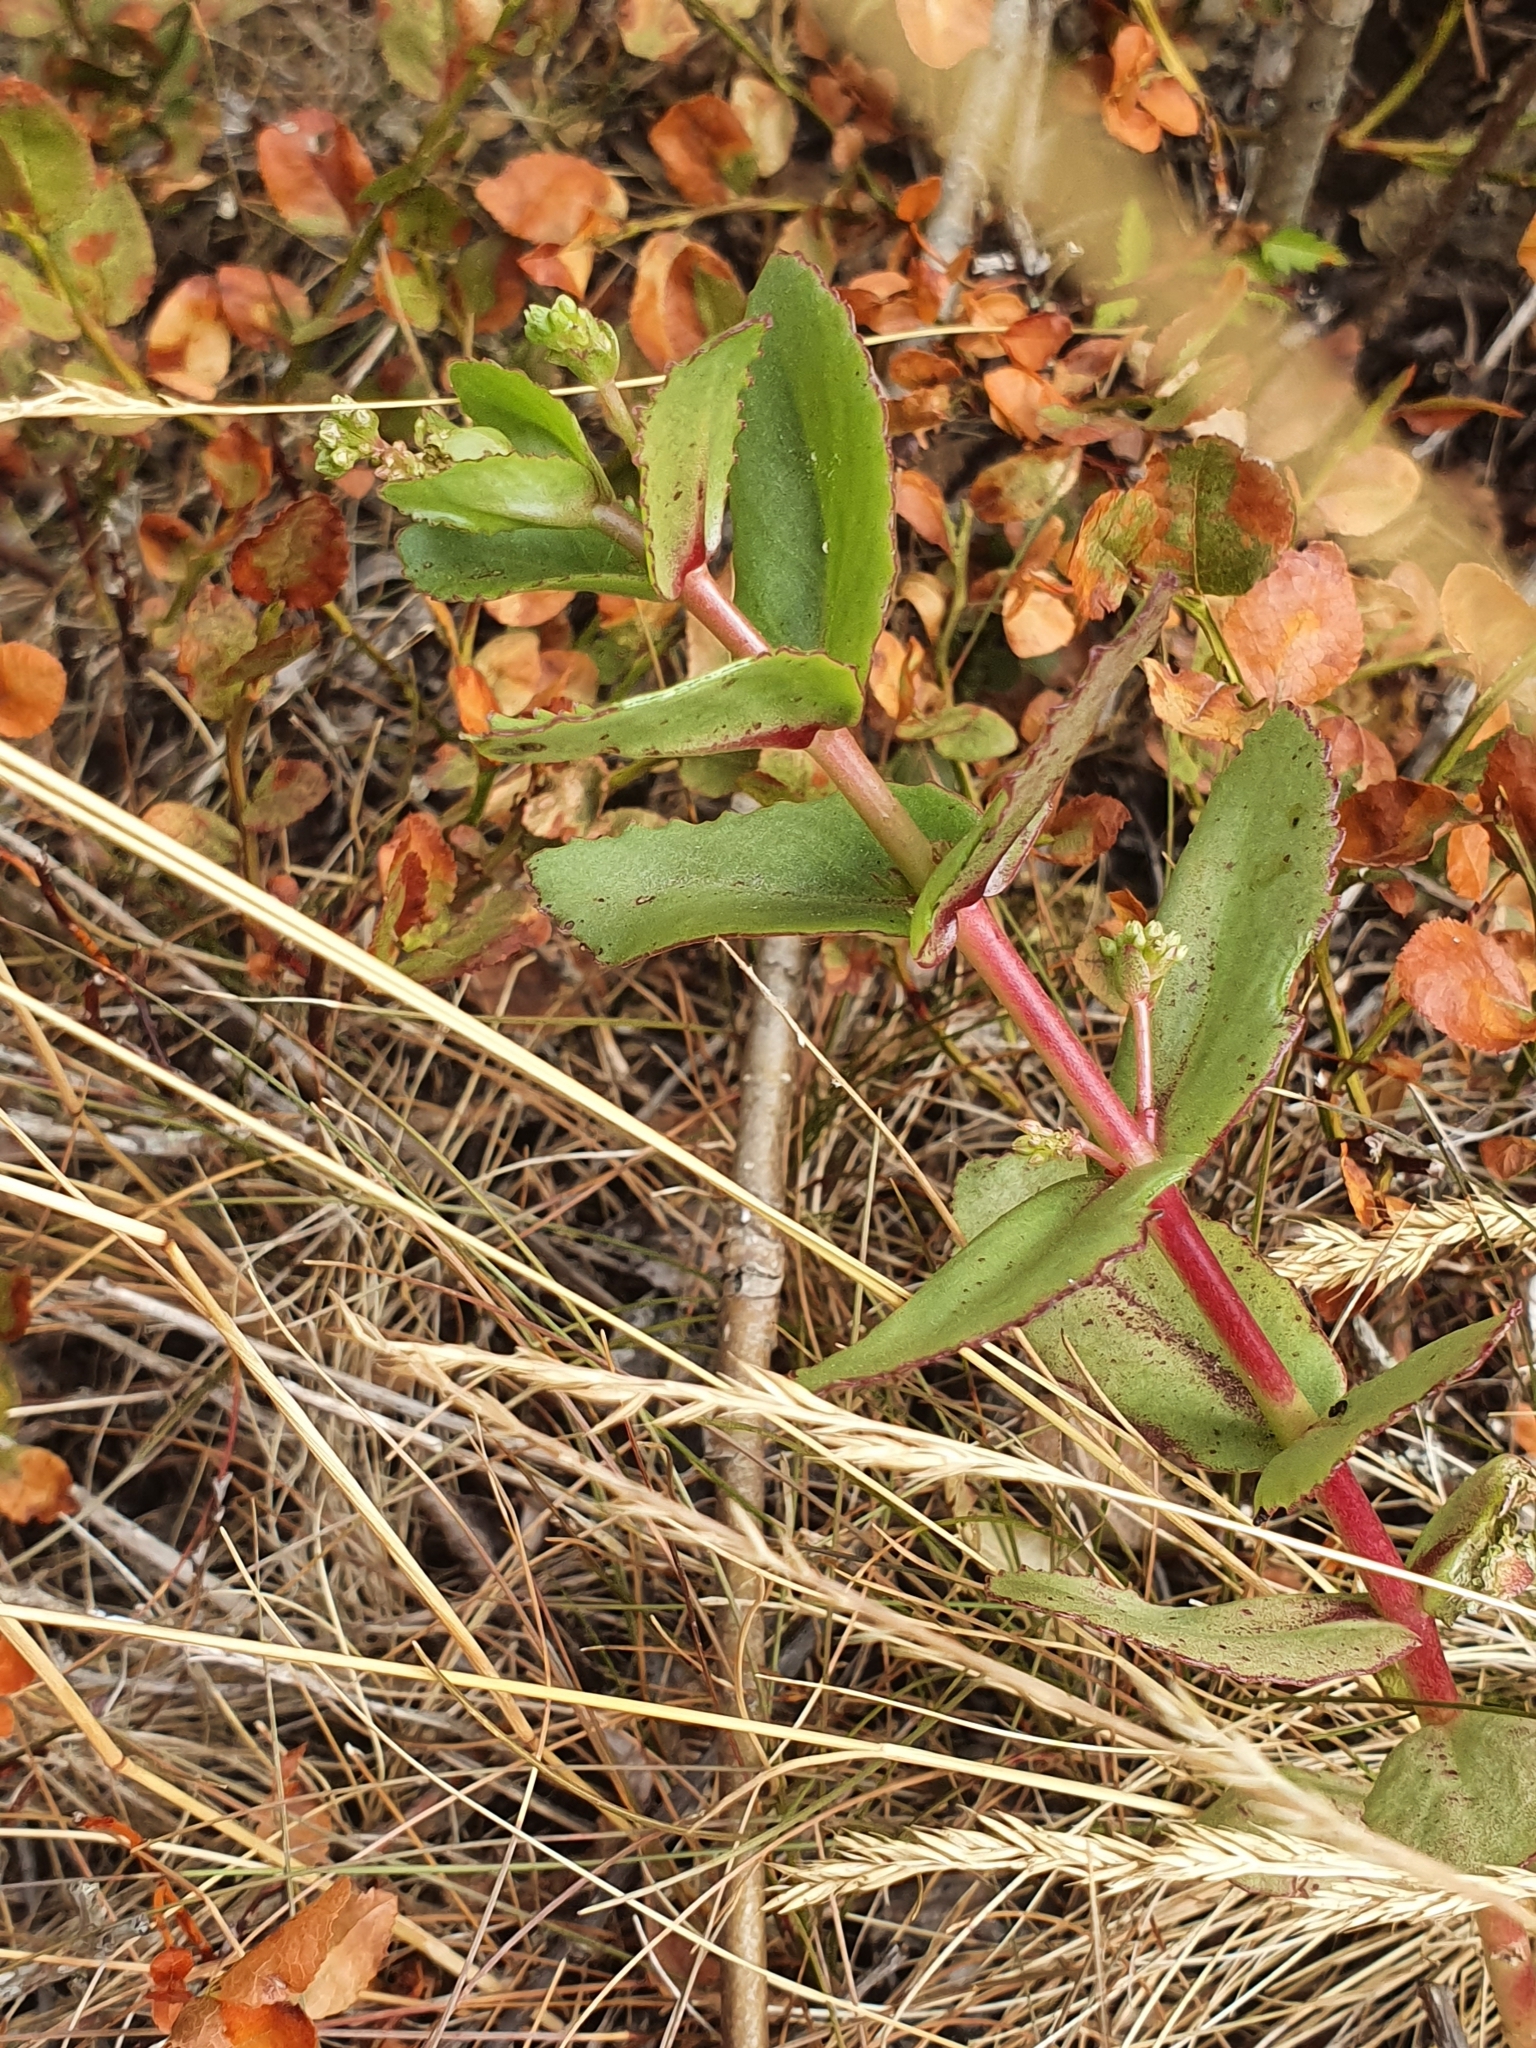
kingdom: Plantae
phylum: Tracheophyta
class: Magnoliopsida
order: Saxifragales
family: Crassulaceae
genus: Hylotelephium
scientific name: Hylotelephium maximum
